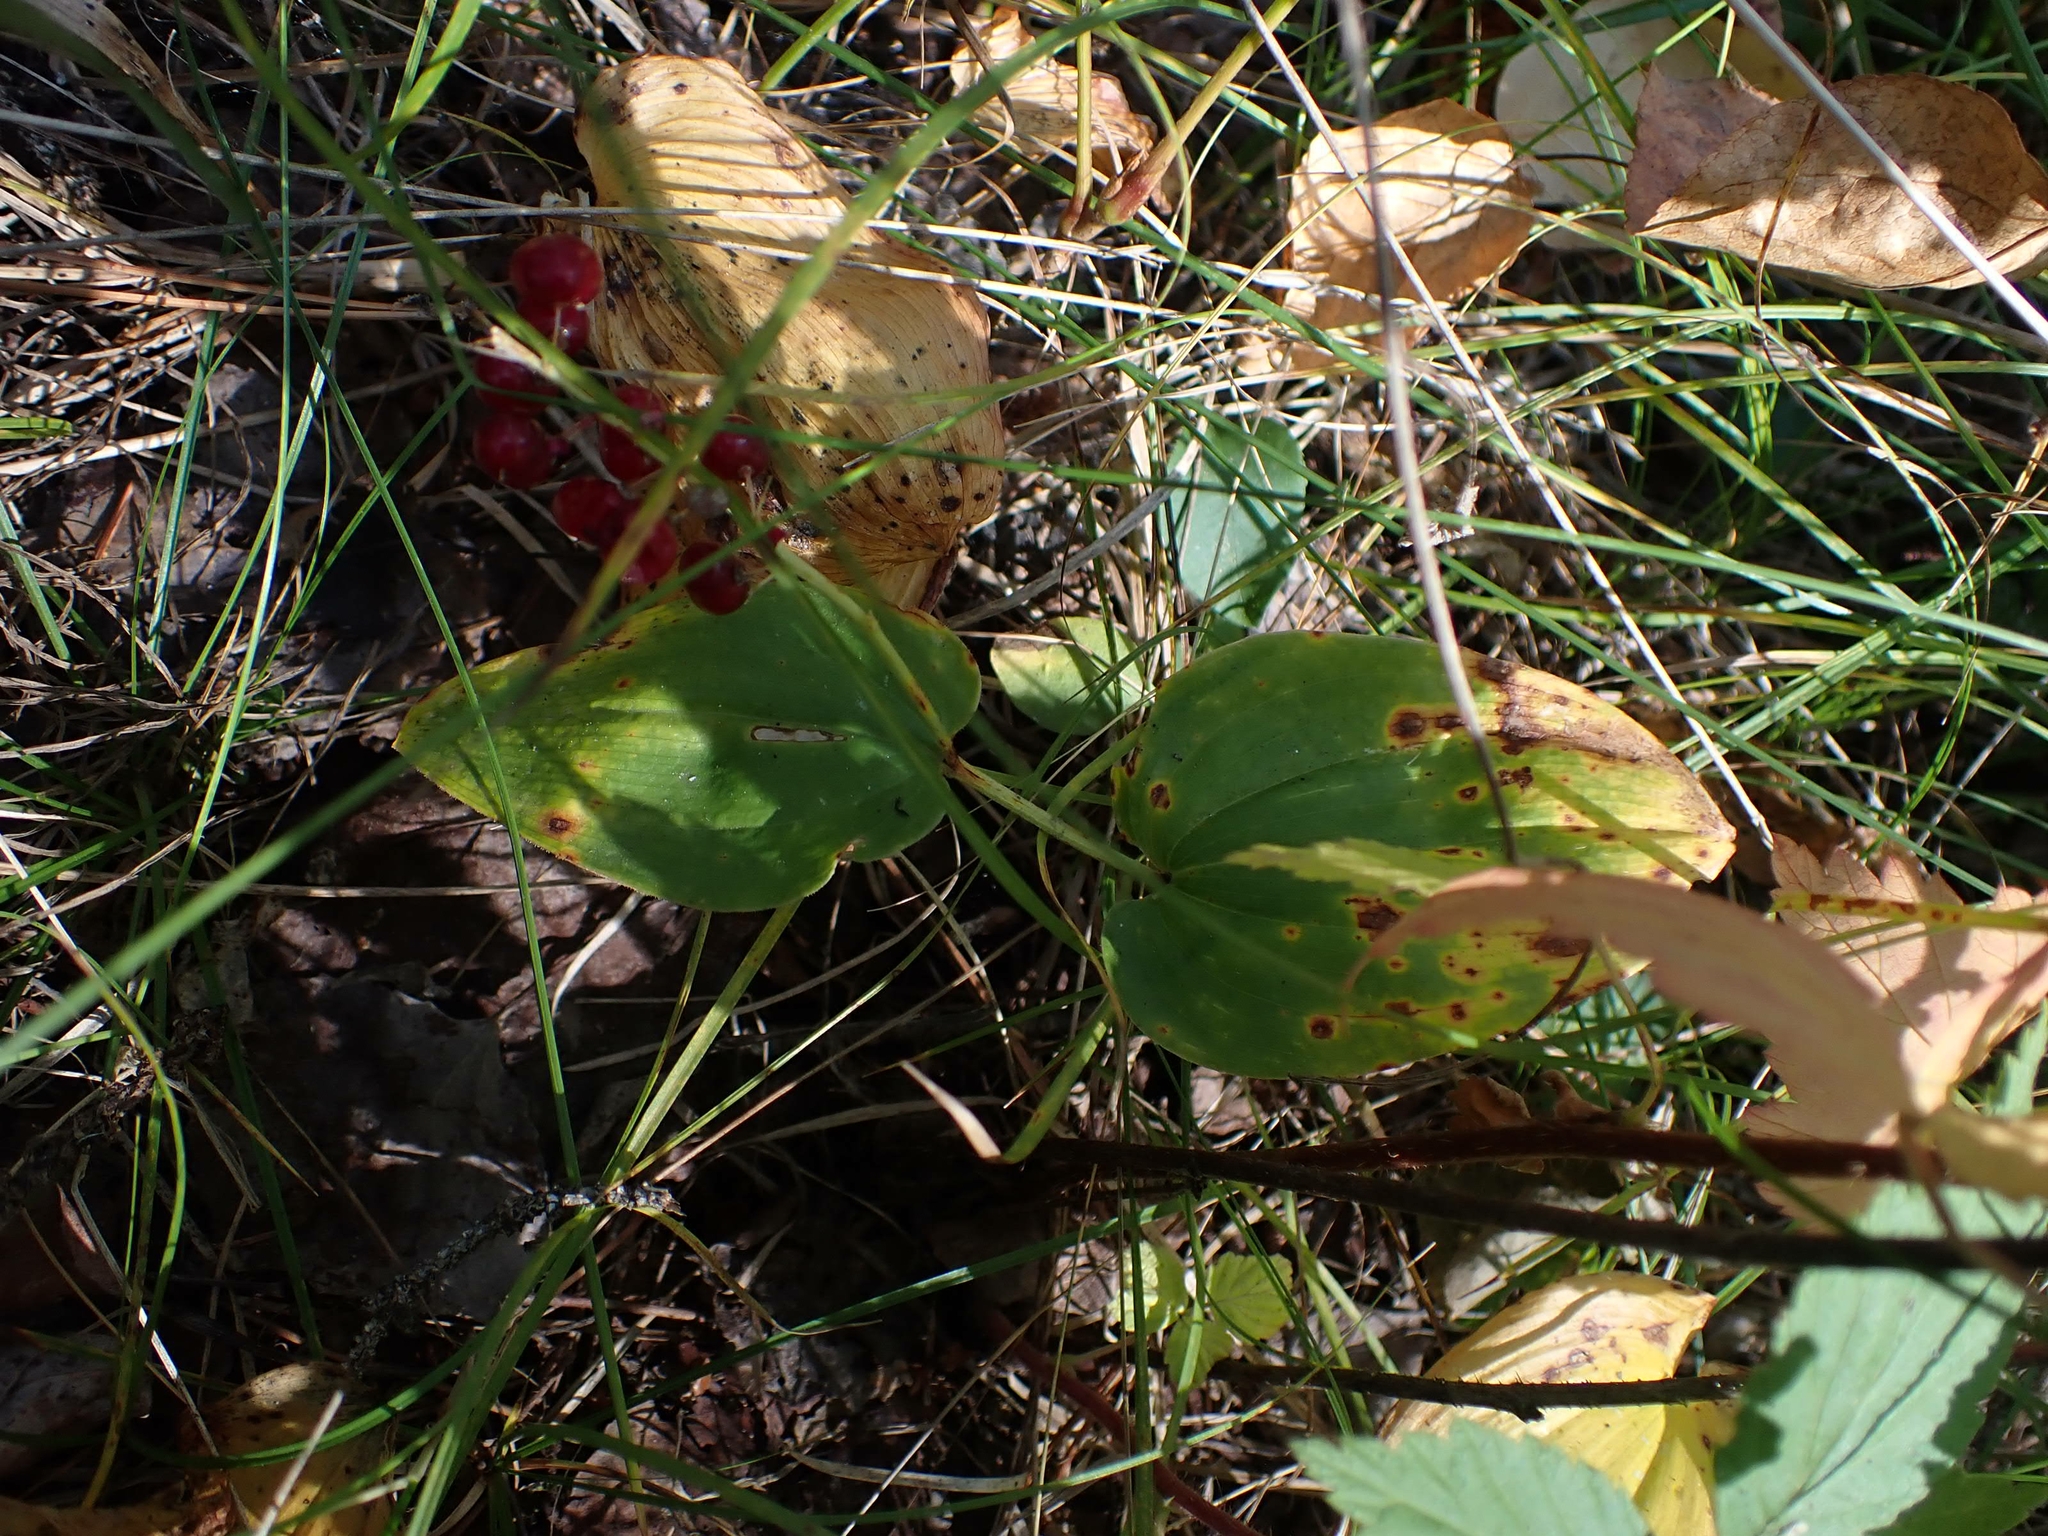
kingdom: Plantae
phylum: Tracheophyta
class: Liliopsida
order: Asparagales
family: Asparagaceae
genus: Maianthemum
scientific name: Maianthemum canadense
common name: False lily-of-the-valley
